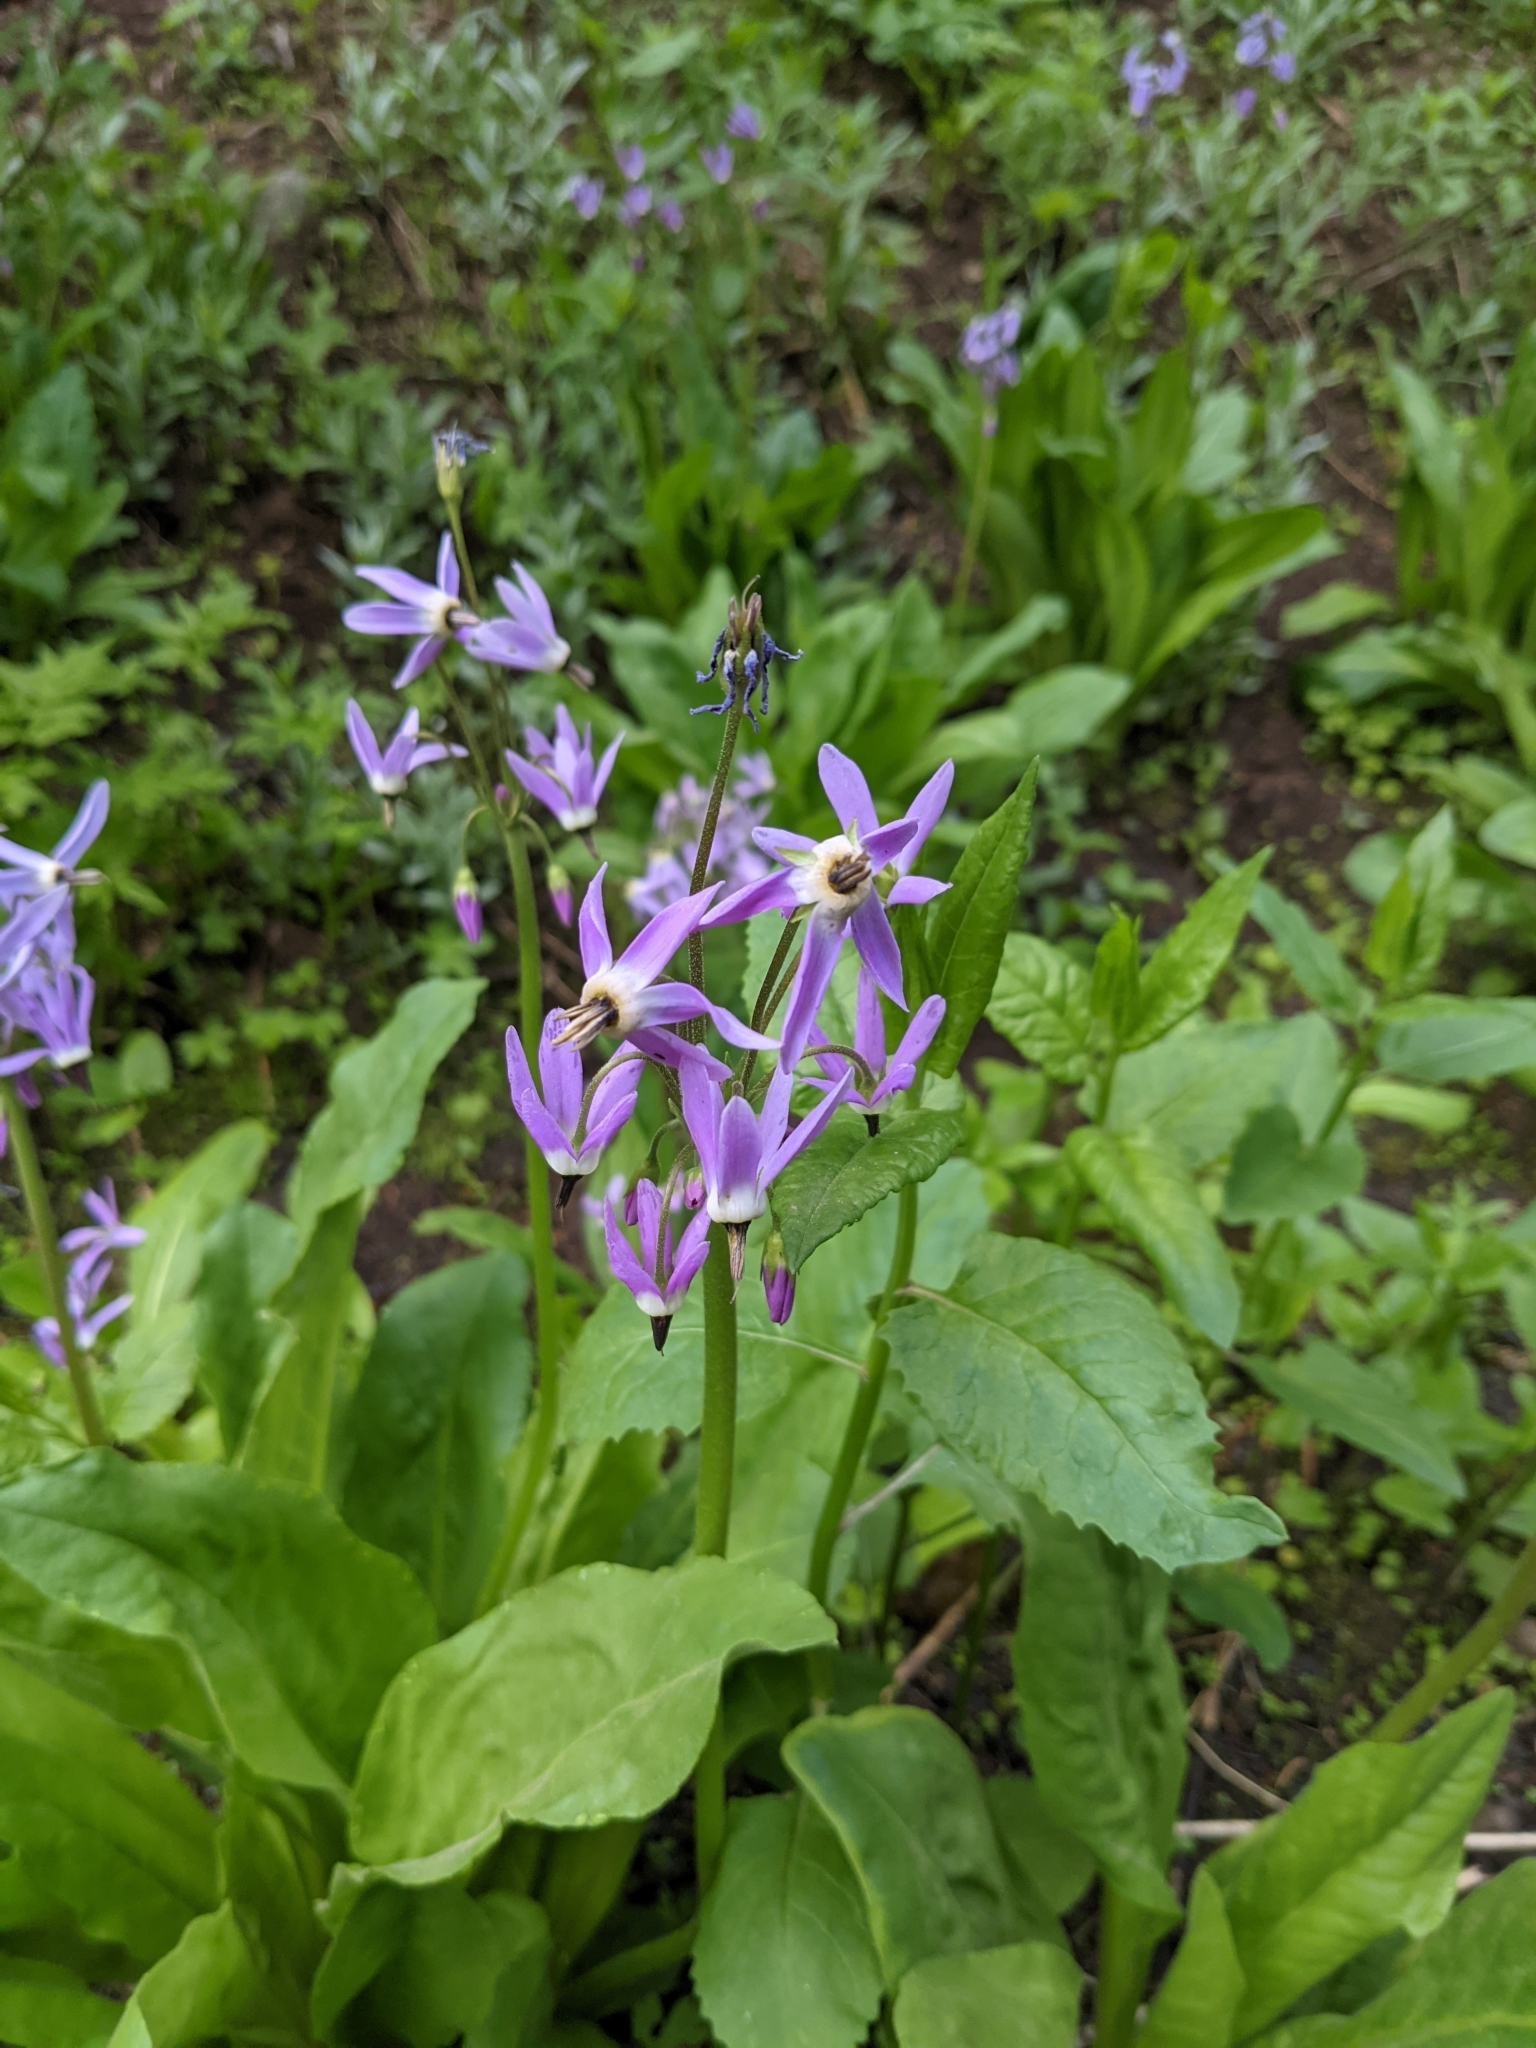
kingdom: Plantae
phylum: Tracheophyta
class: Magnoliopsida
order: Ericales
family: Primulaceae
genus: Dodecatheon
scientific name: Dodecatheon jeffreyanum
